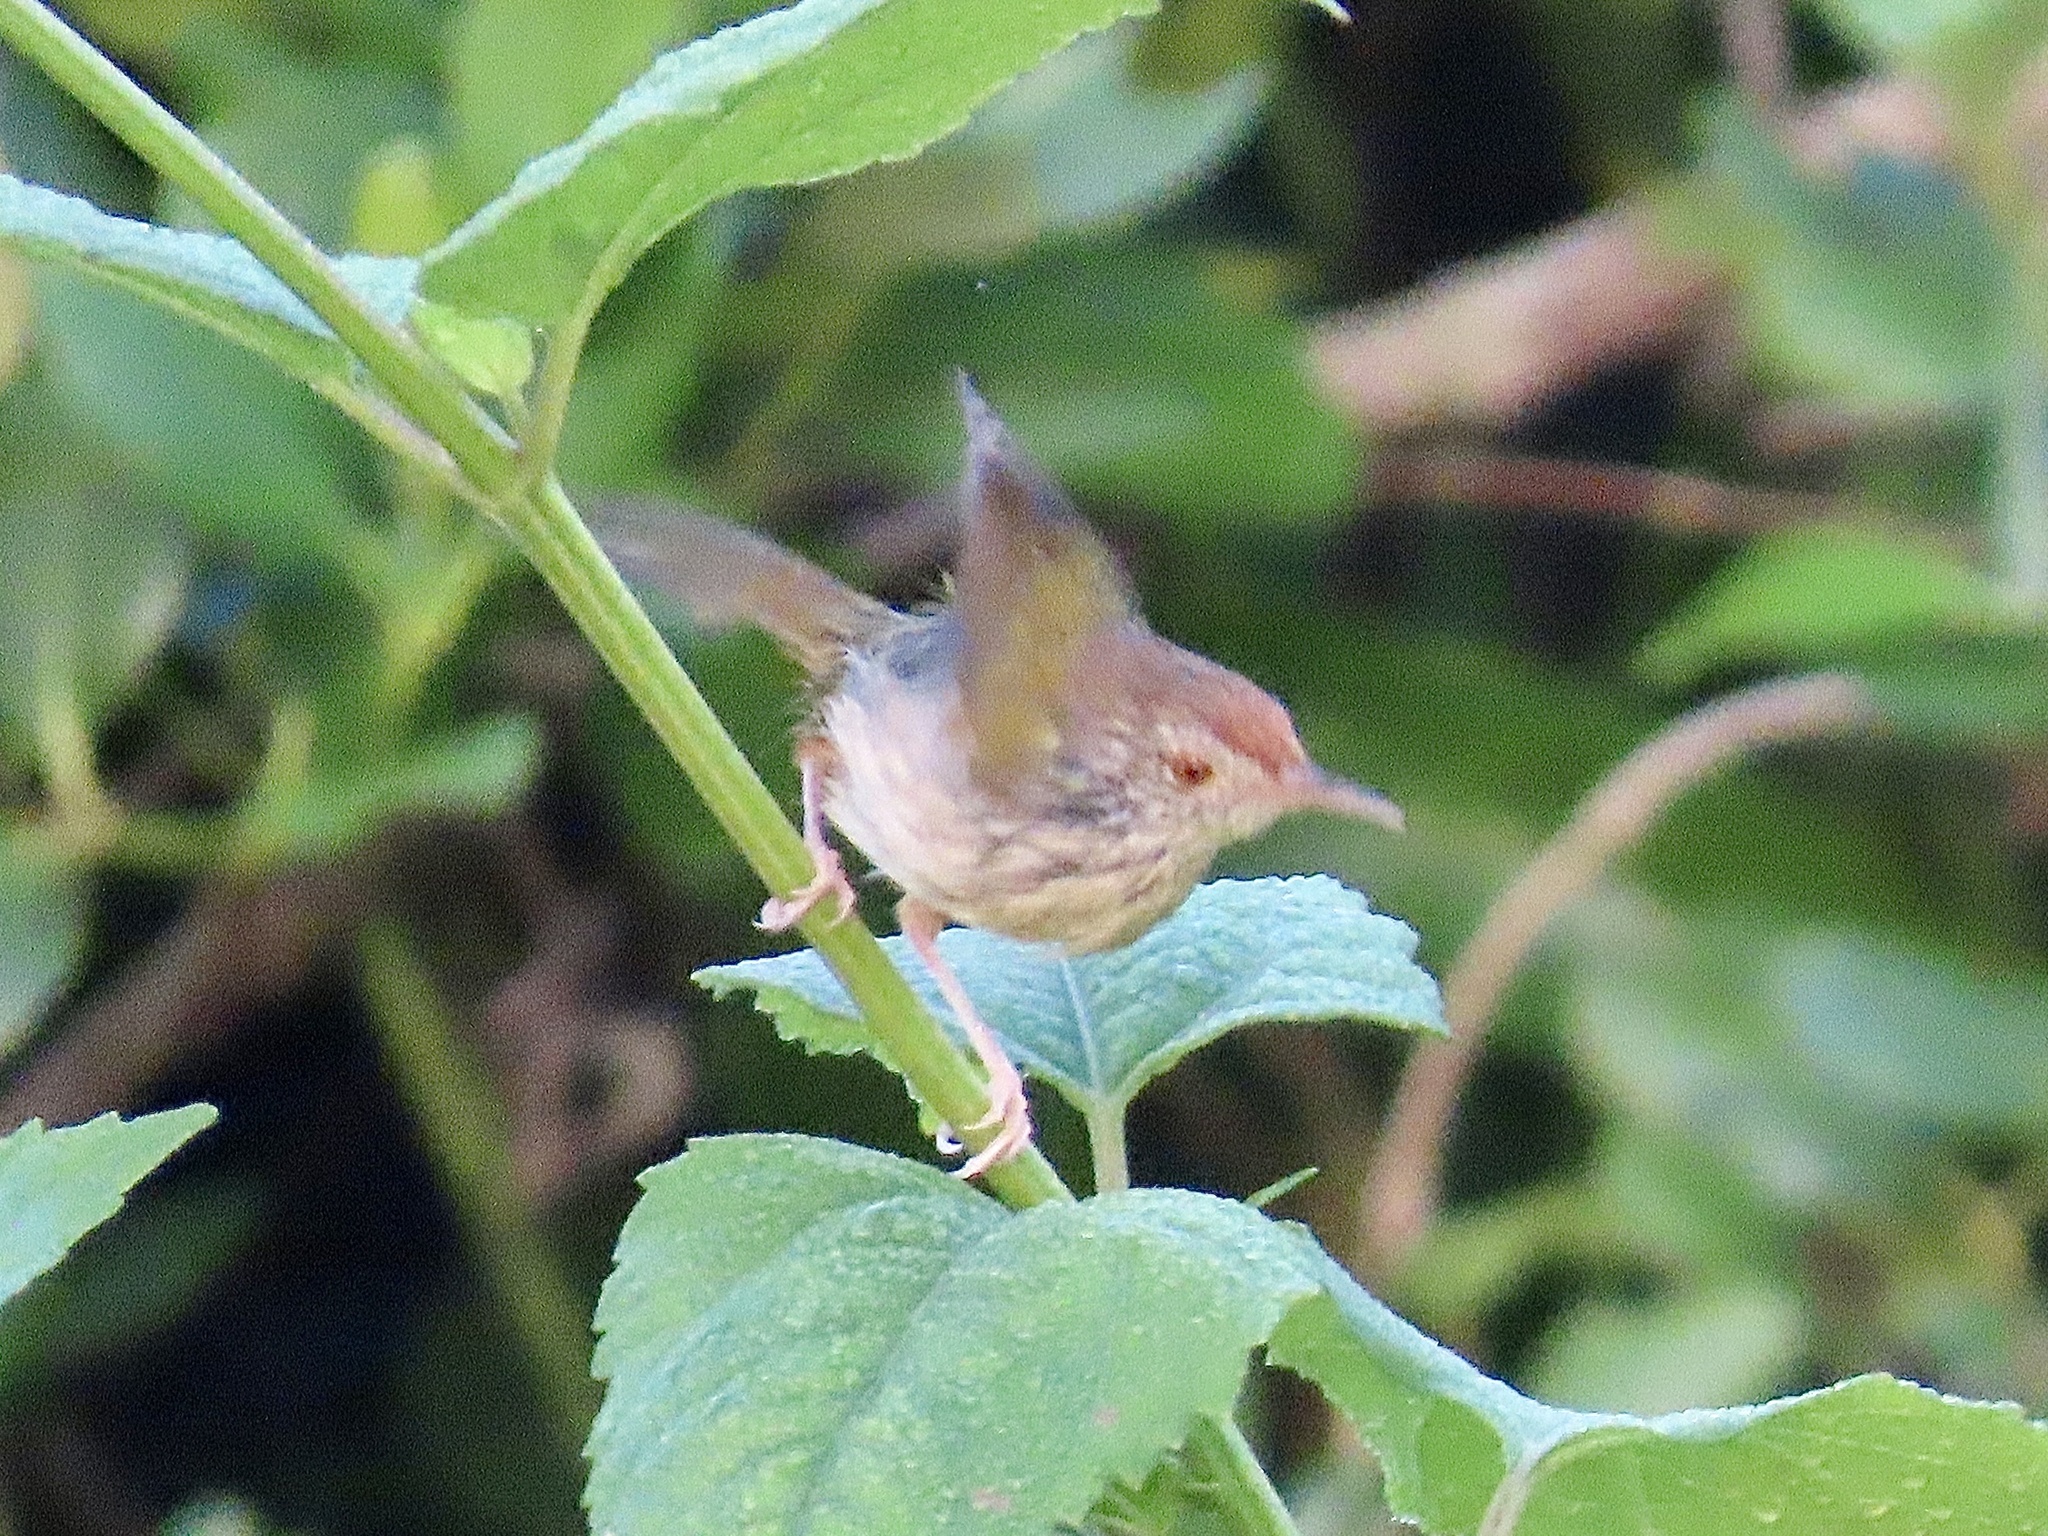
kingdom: Animalia
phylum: Chordata
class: Aves
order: Passeriformes
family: Cisticolidae
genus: Orthotomus
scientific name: Orthotomus sutorius
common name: Common tailorbird
